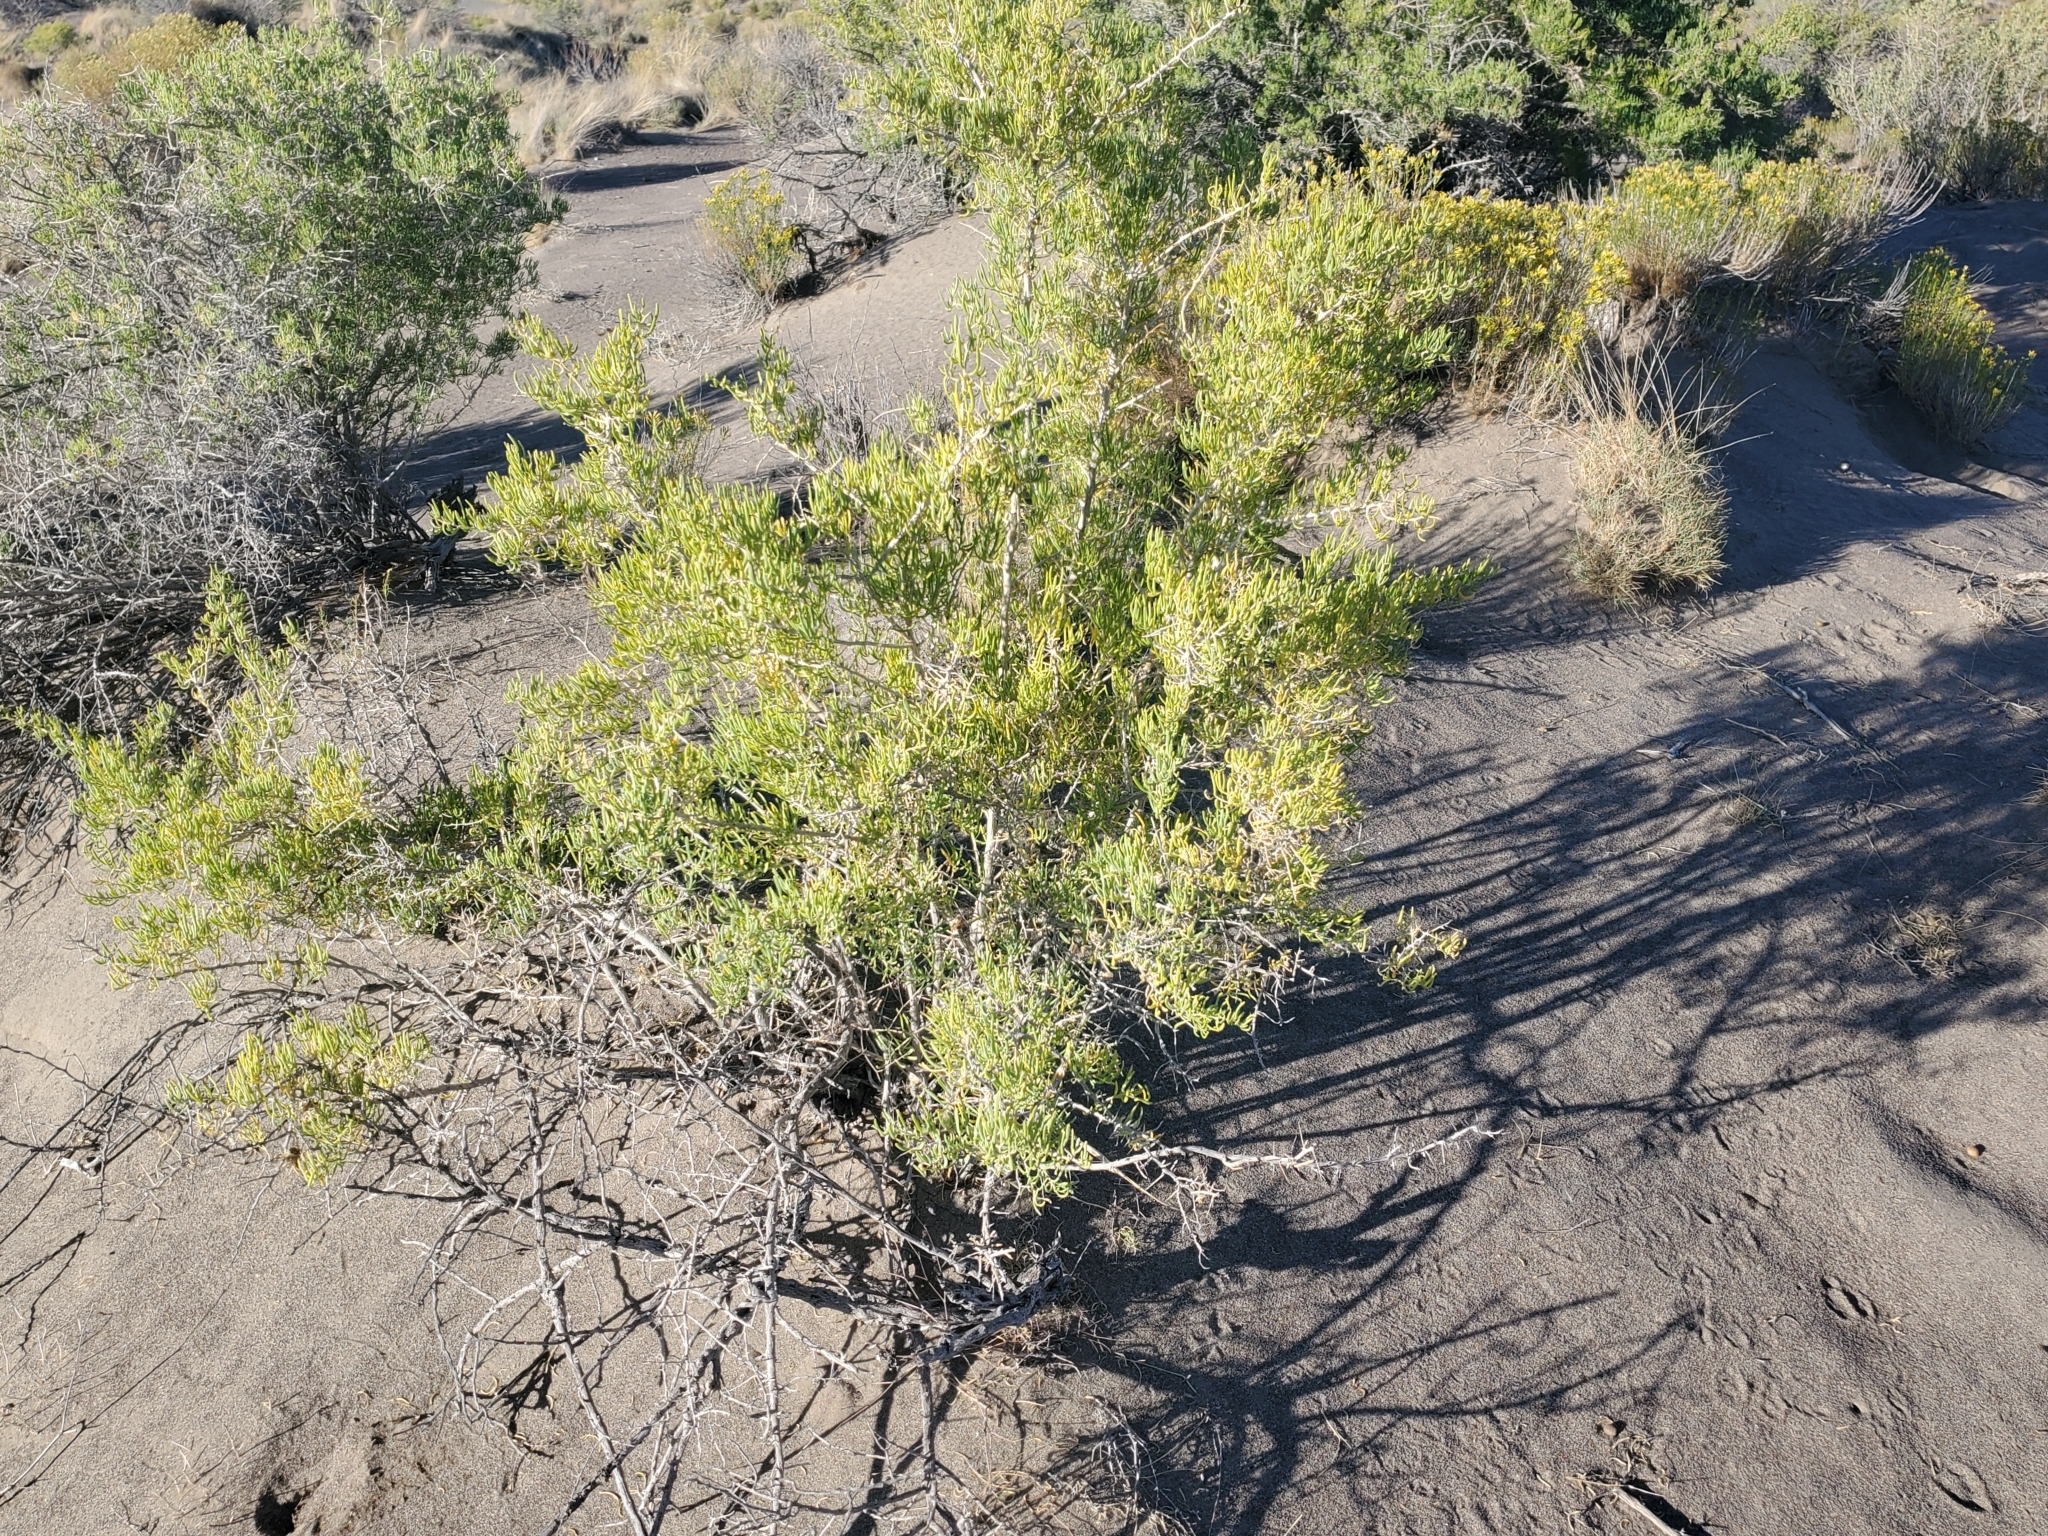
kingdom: Plantae
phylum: Tracheophyta
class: Magnoliopsida
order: Caryophyllales
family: Sarcobataceae
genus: Sarcobatus
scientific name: Sarcobatus vermiculatus
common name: Greasewood
